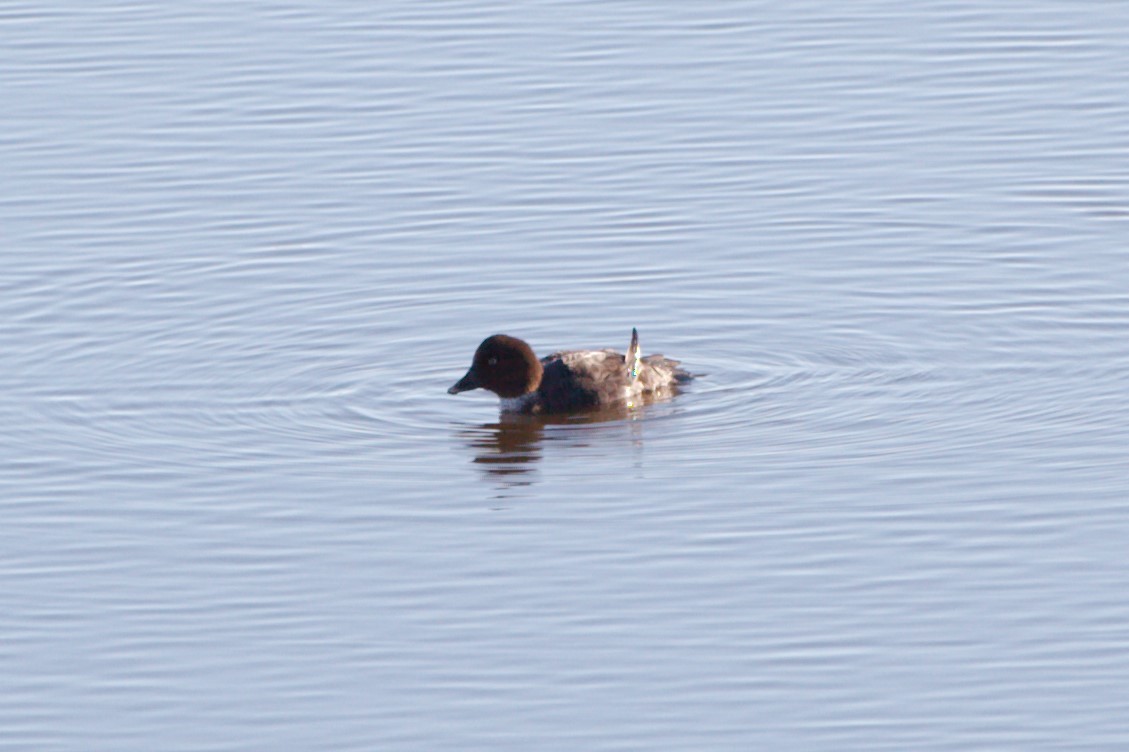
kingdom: Animalia
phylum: Chordata
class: Aves
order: Anseriformes
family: Anatidae
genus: Bucephala
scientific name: Bucephala clangula
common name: Common goldeneye
